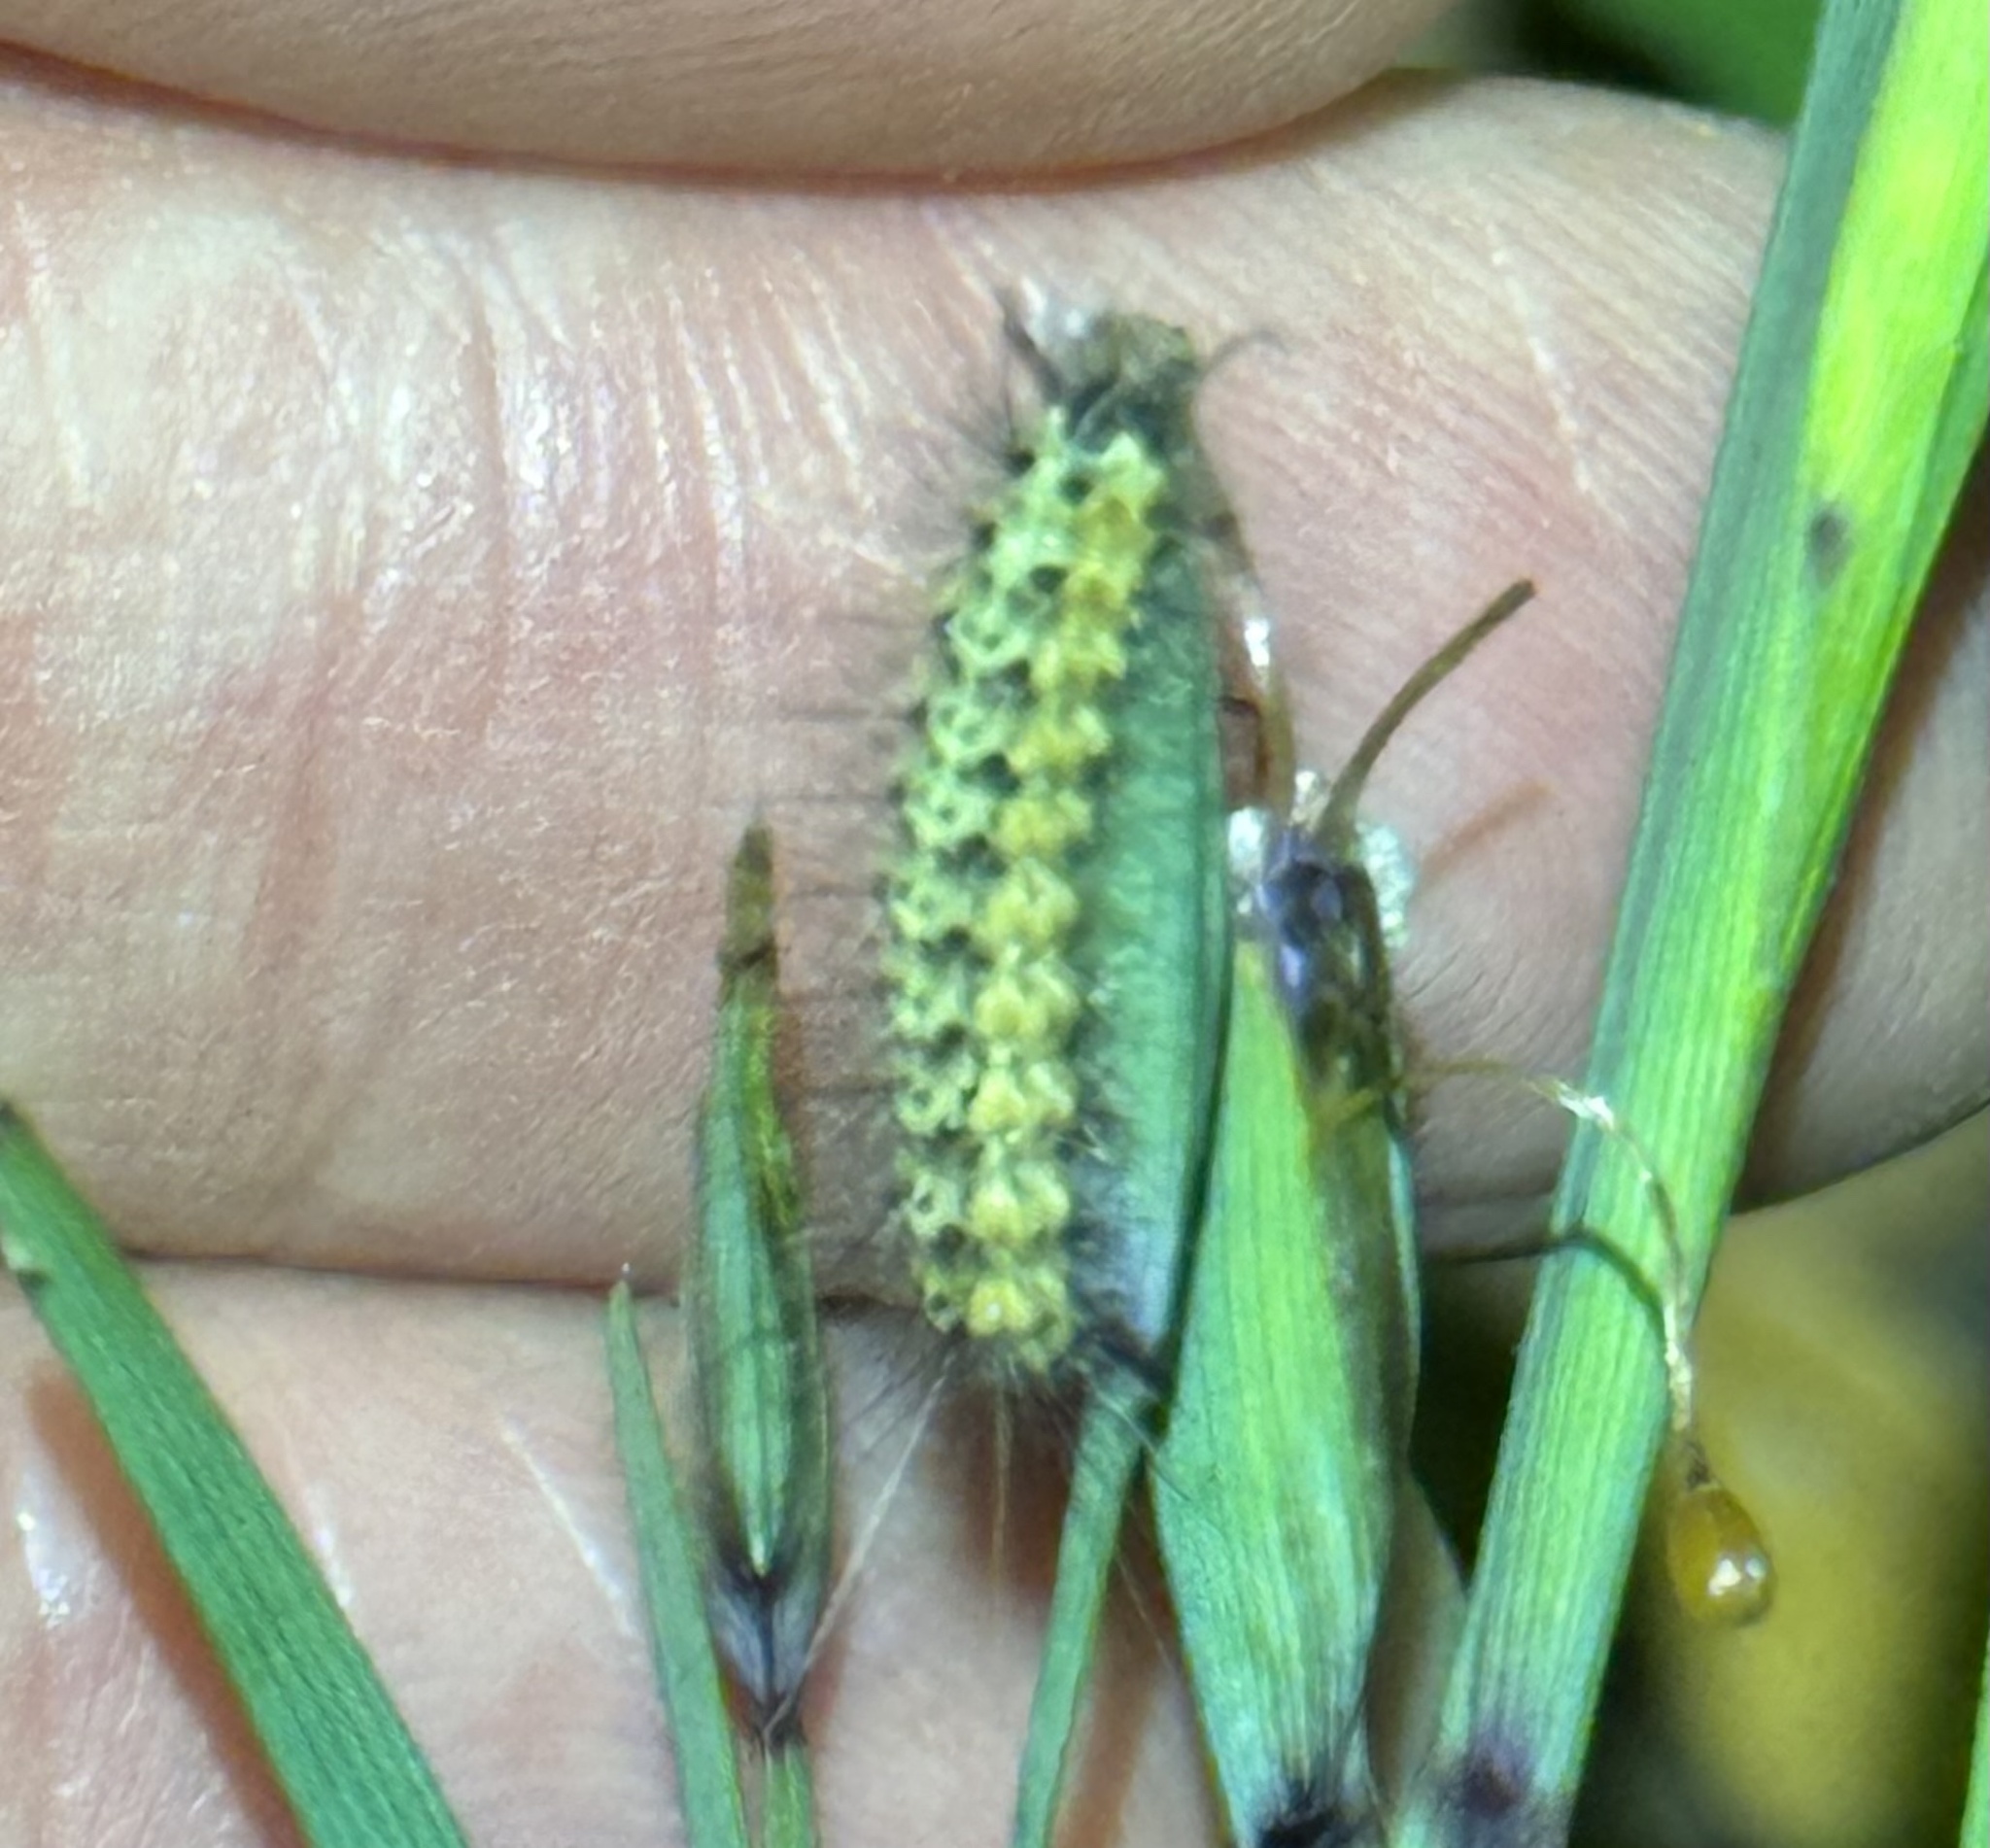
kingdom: Animalia
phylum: Arthropoda
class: Insecta
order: Lepidoptera
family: Erebidae
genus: Estigmene
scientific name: Estigmene acrea
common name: Salt marsh moth
